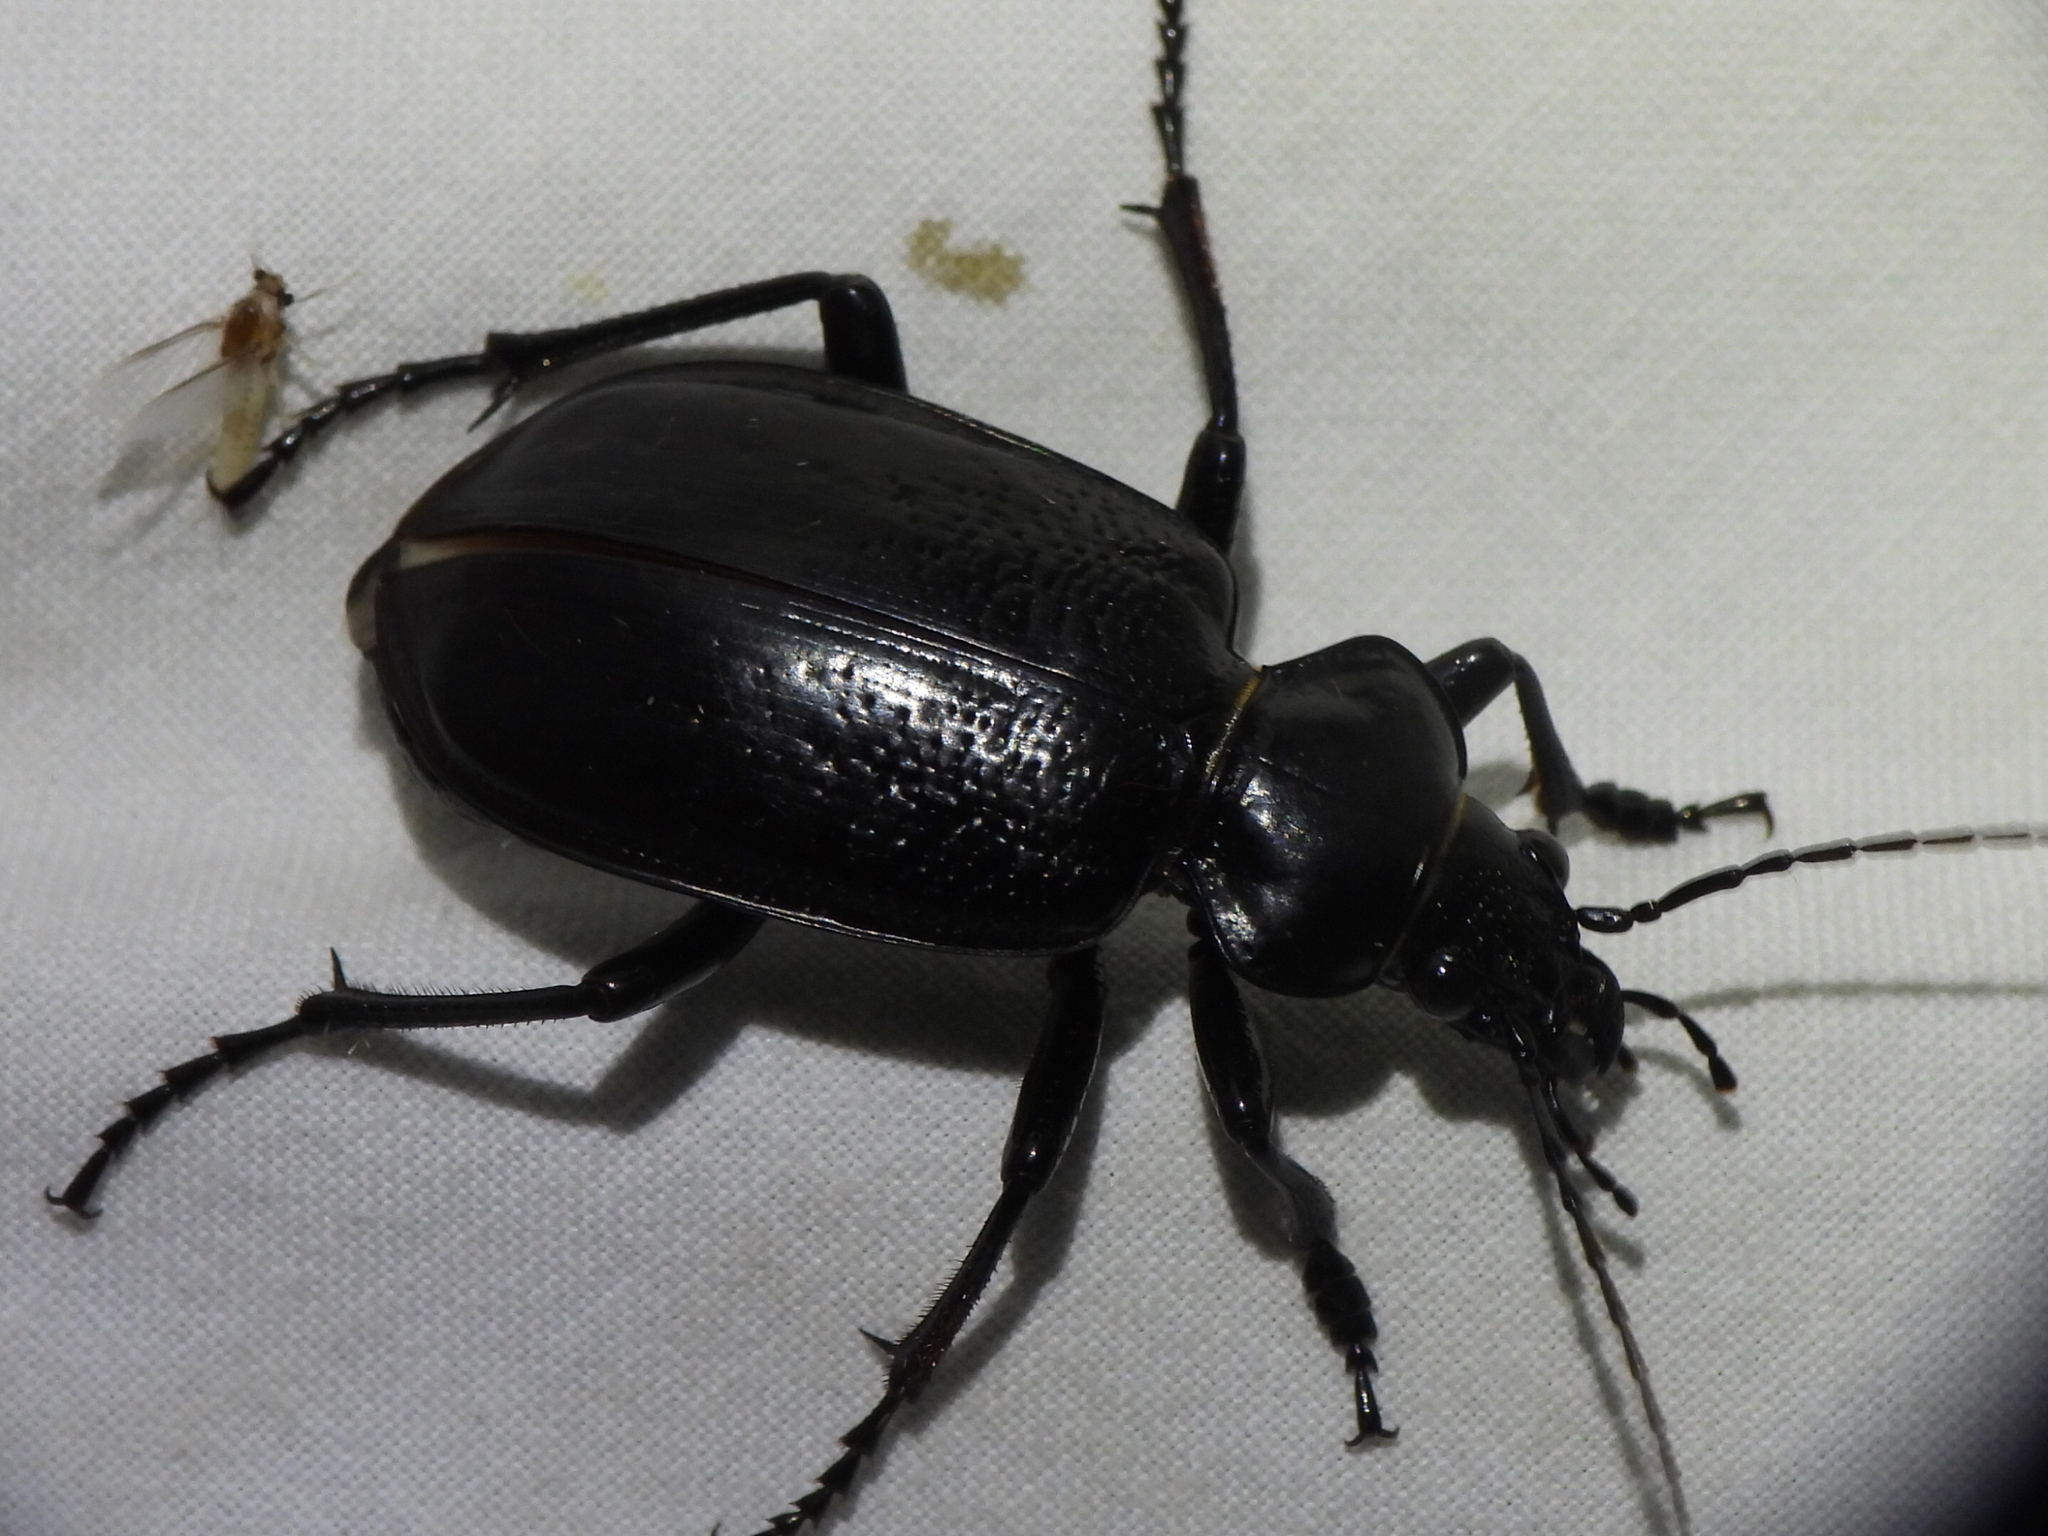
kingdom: Animalia
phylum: Arthropoda
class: Insecta
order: Coleoptera
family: Carabidae
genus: Calosoma
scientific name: Calosoma marginale
